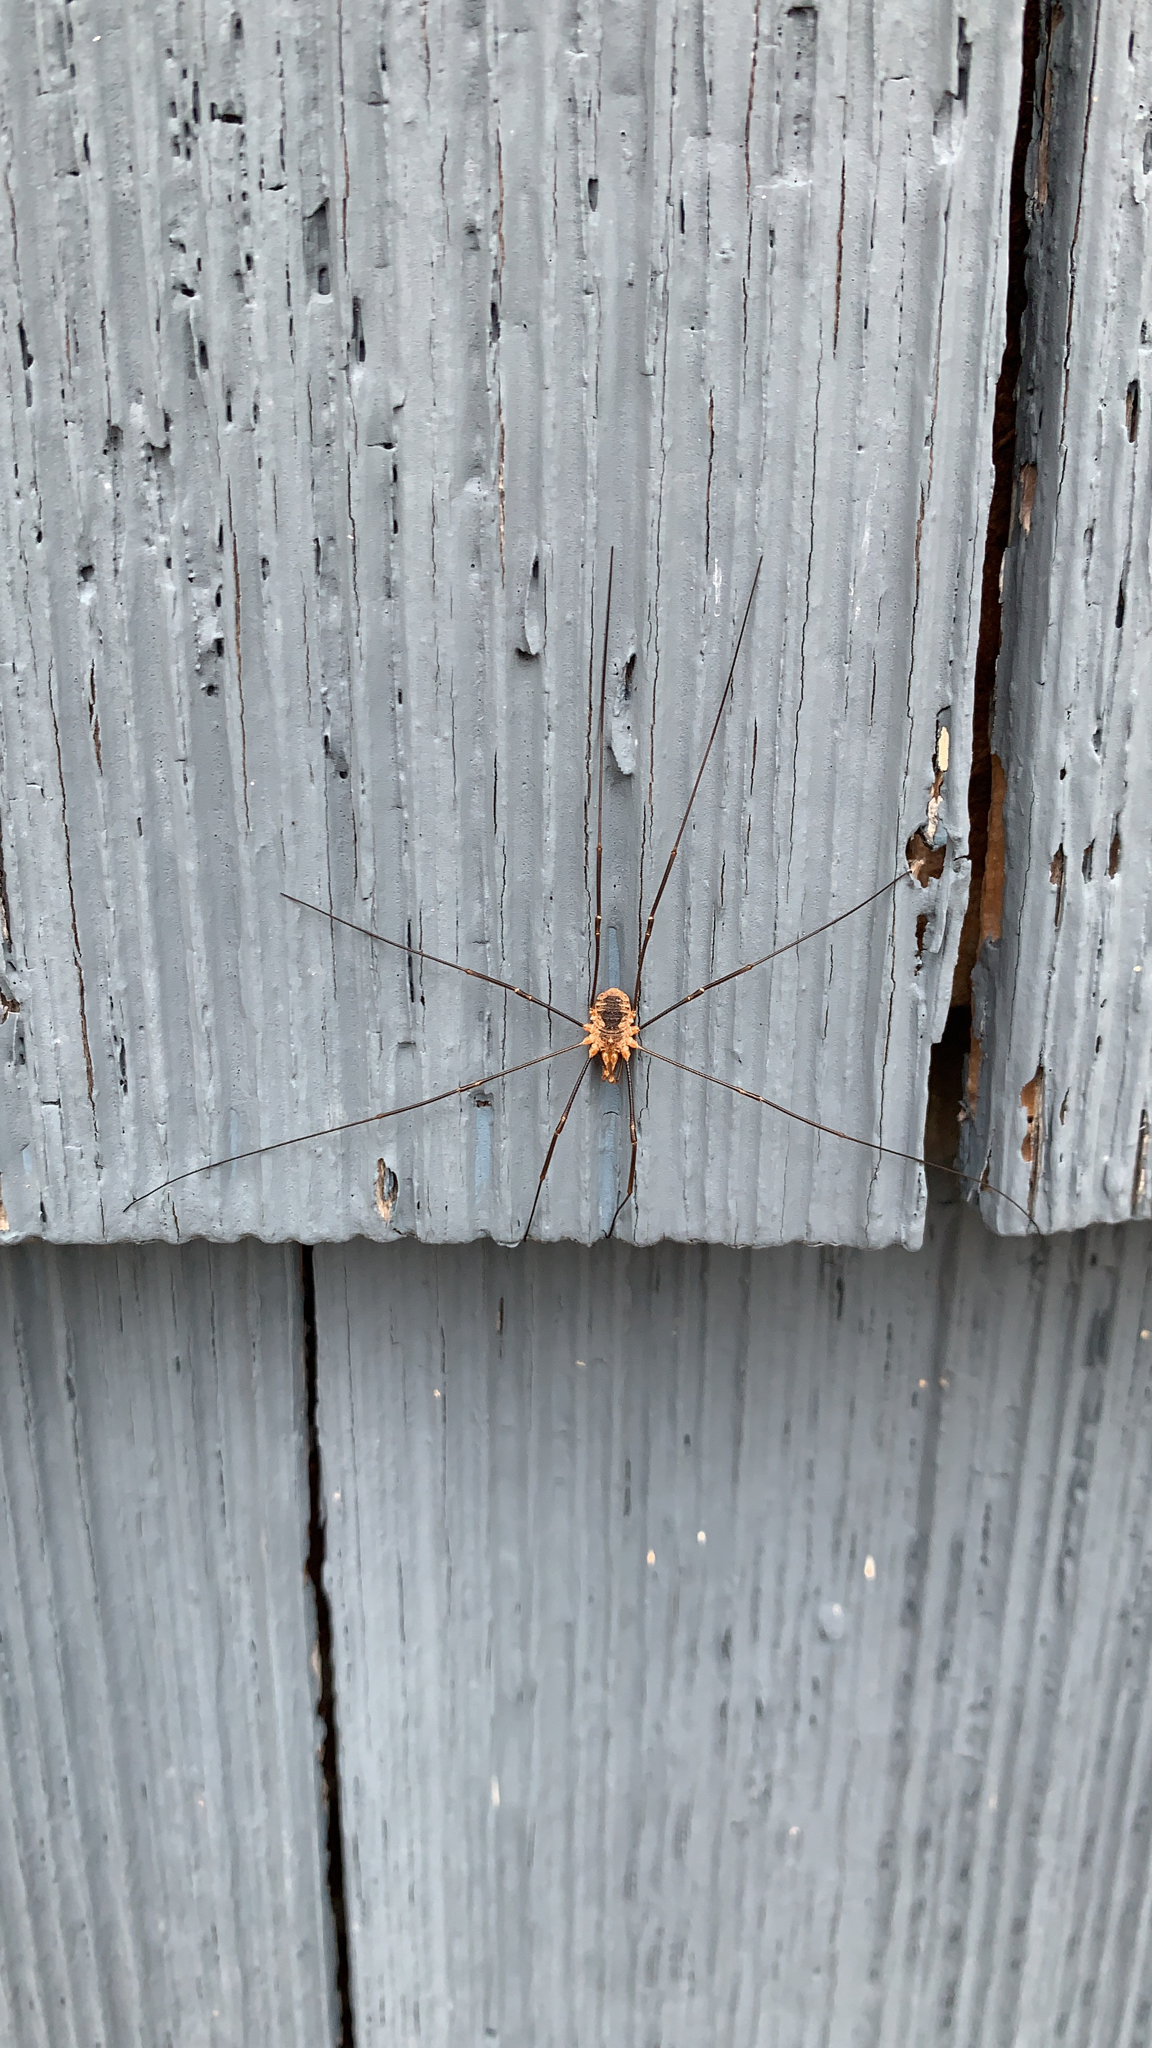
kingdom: Animalia
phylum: Arthropoda
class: Arachnida
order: Opiliones
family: Phalangiidae
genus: Phalangium
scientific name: Phalangium opilio
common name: Daddy longleg
